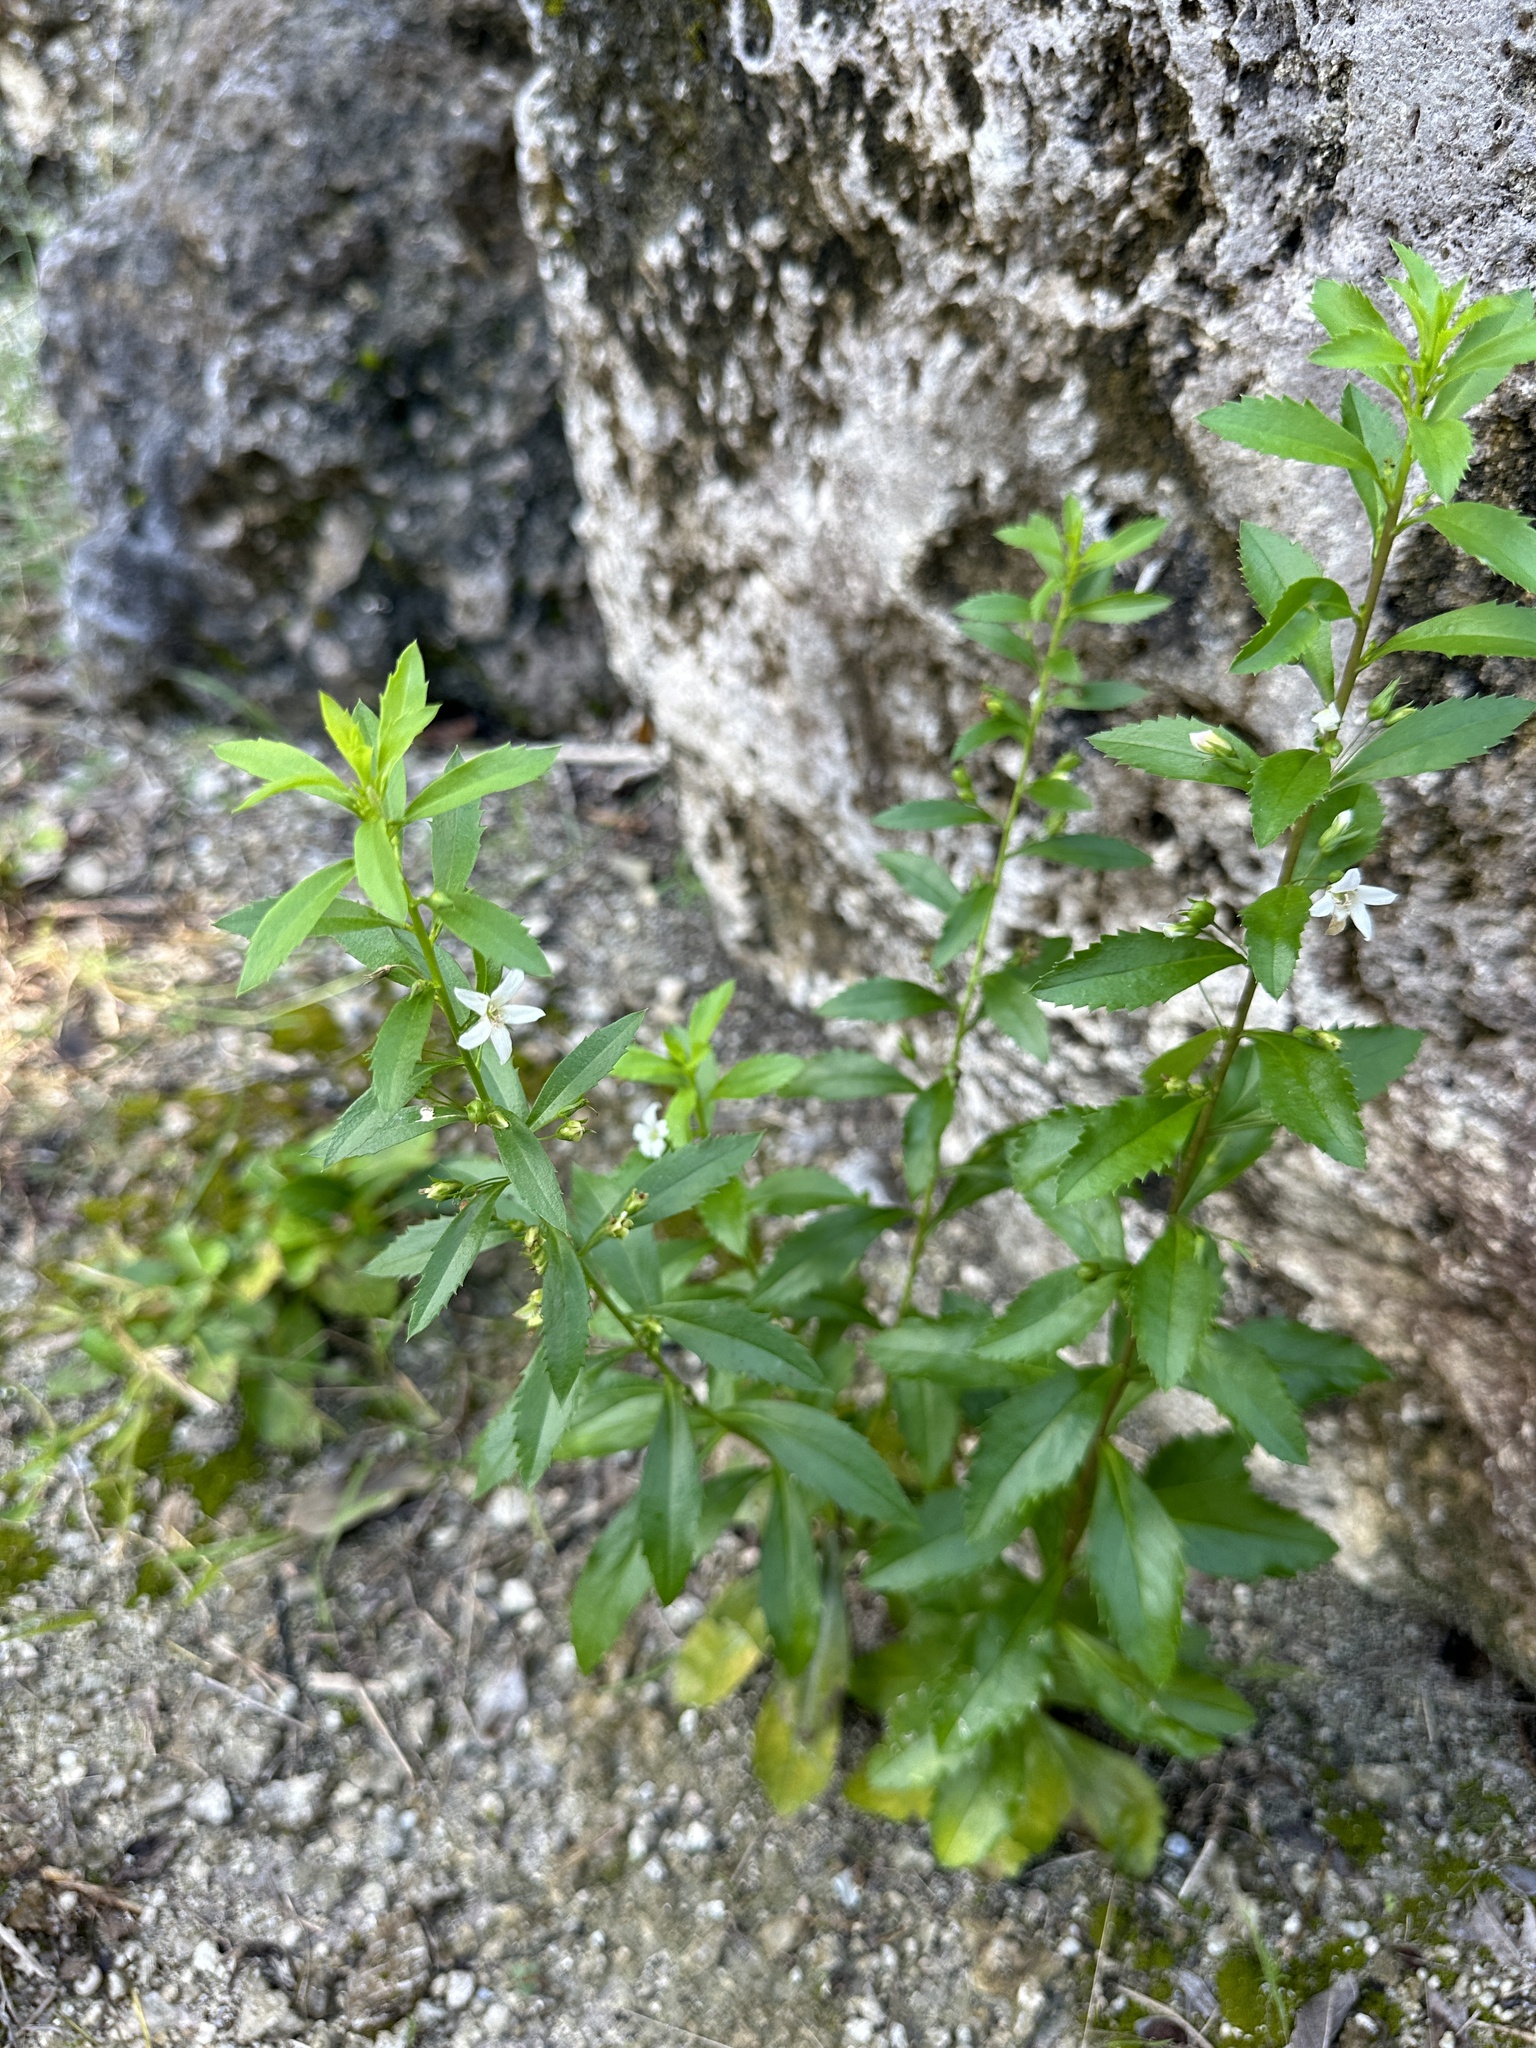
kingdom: Plantae
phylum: Tracheophyta
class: Magnoliopsida
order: Lamiales
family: Scrophulariaceae
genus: Capraria
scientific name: Capraria biflora
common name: Goatweed
